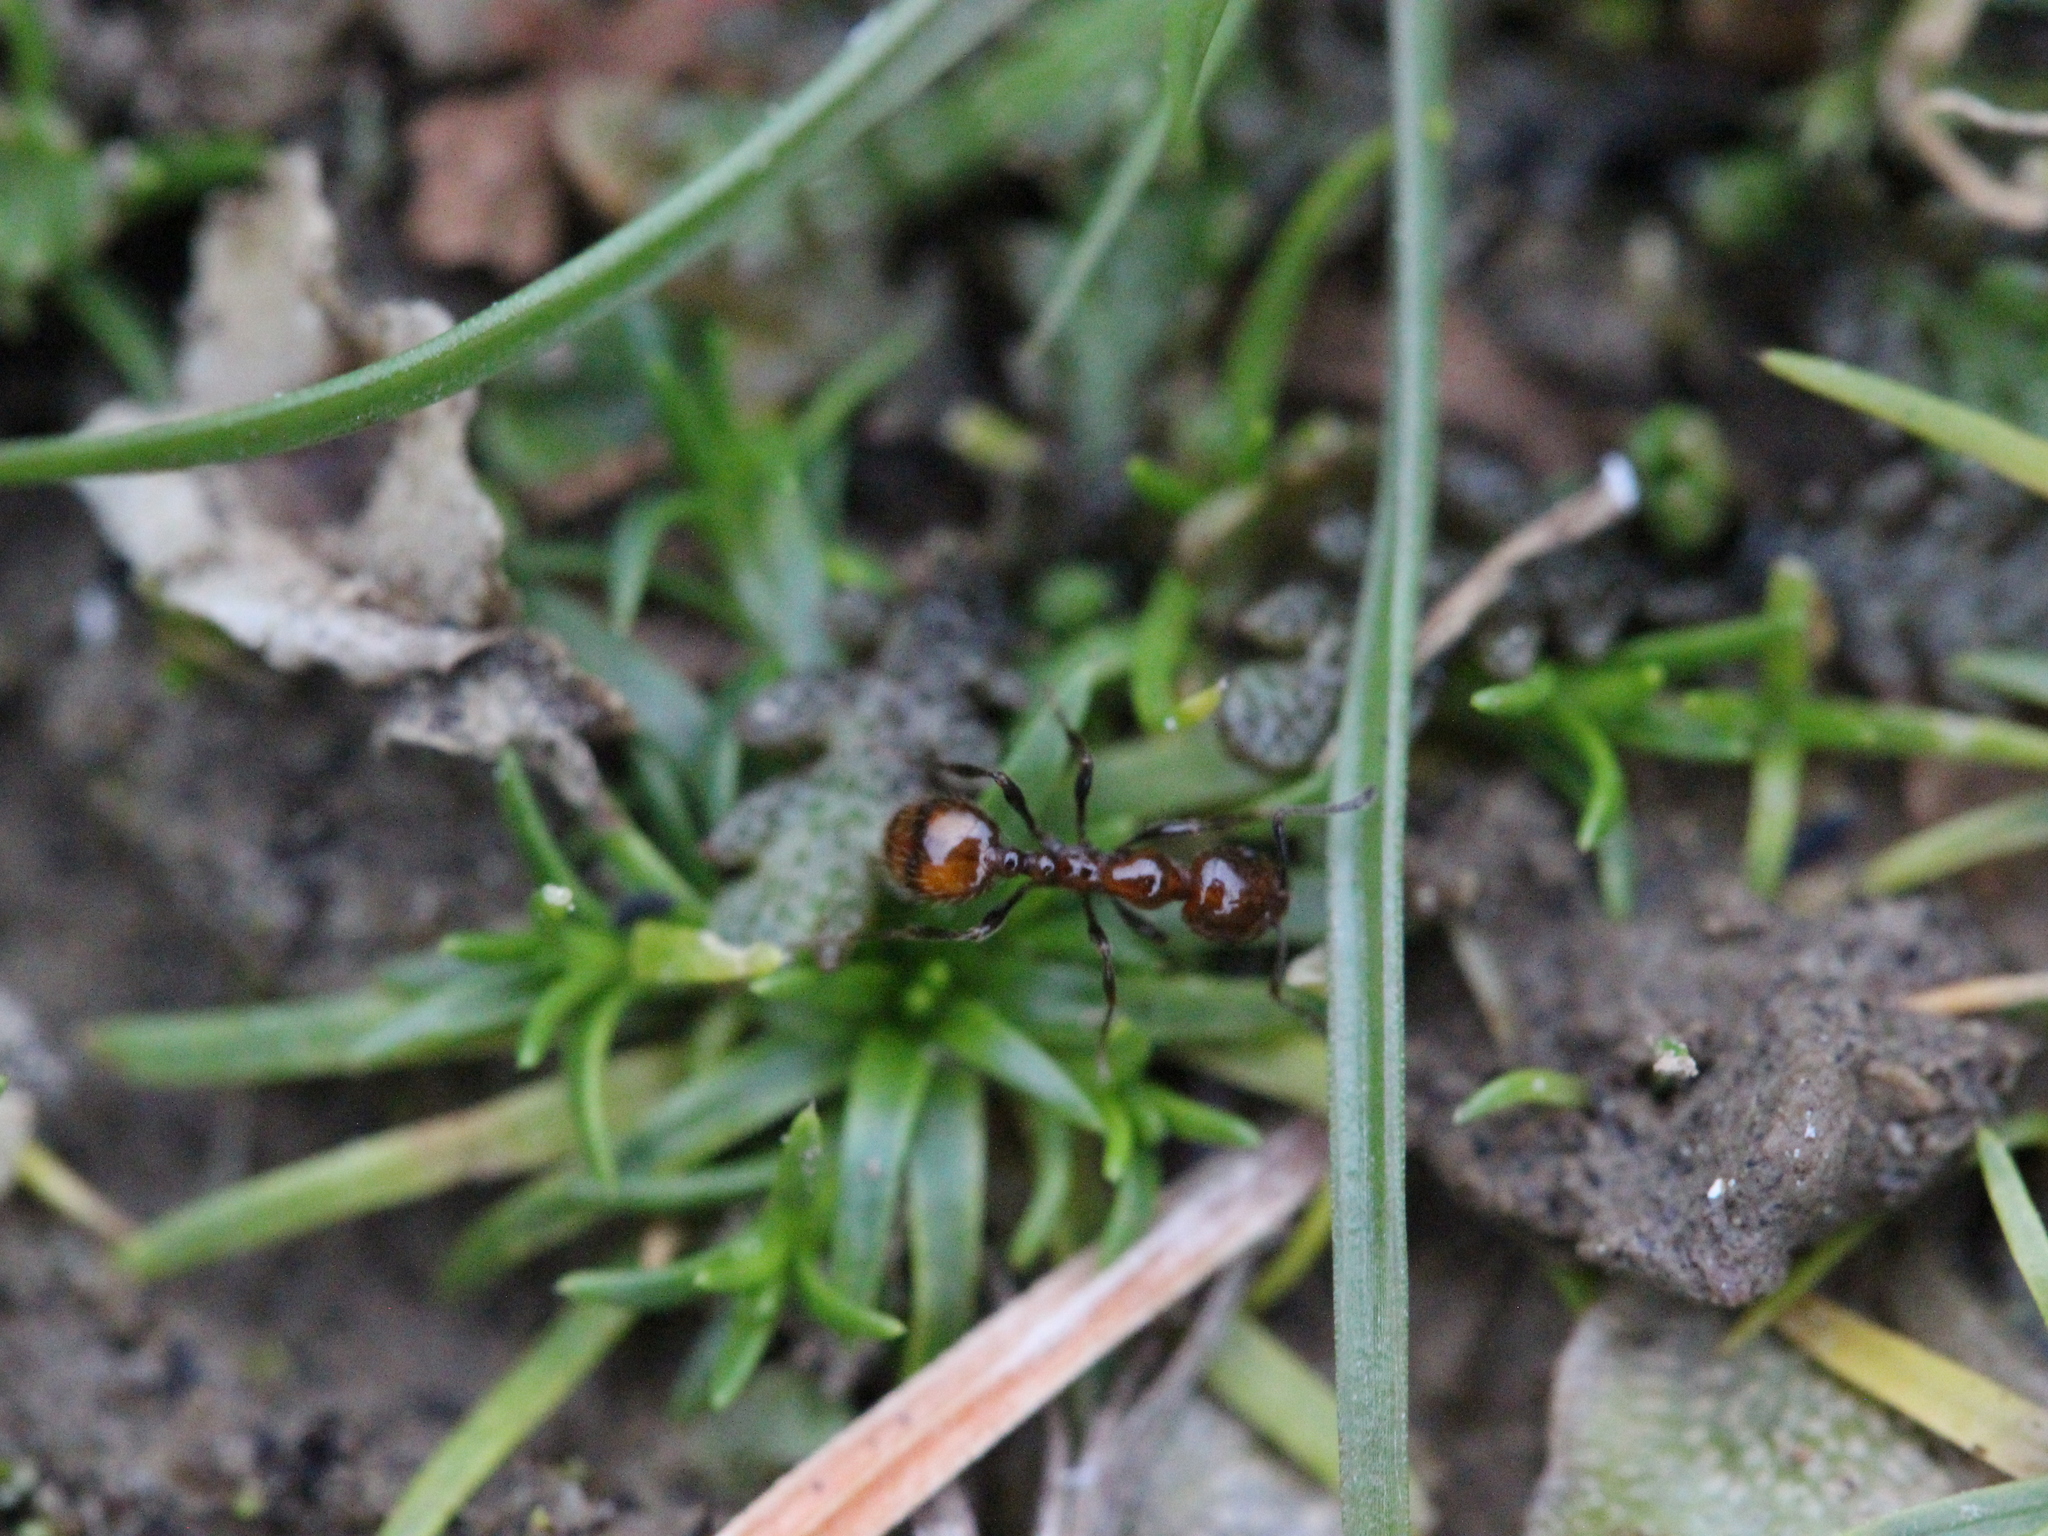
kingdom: Animalia
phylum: Arthropoda
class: Insecta
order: Hymenoptera
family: Formicidae
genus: Monomorium
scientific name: Monomorium antarcticum
